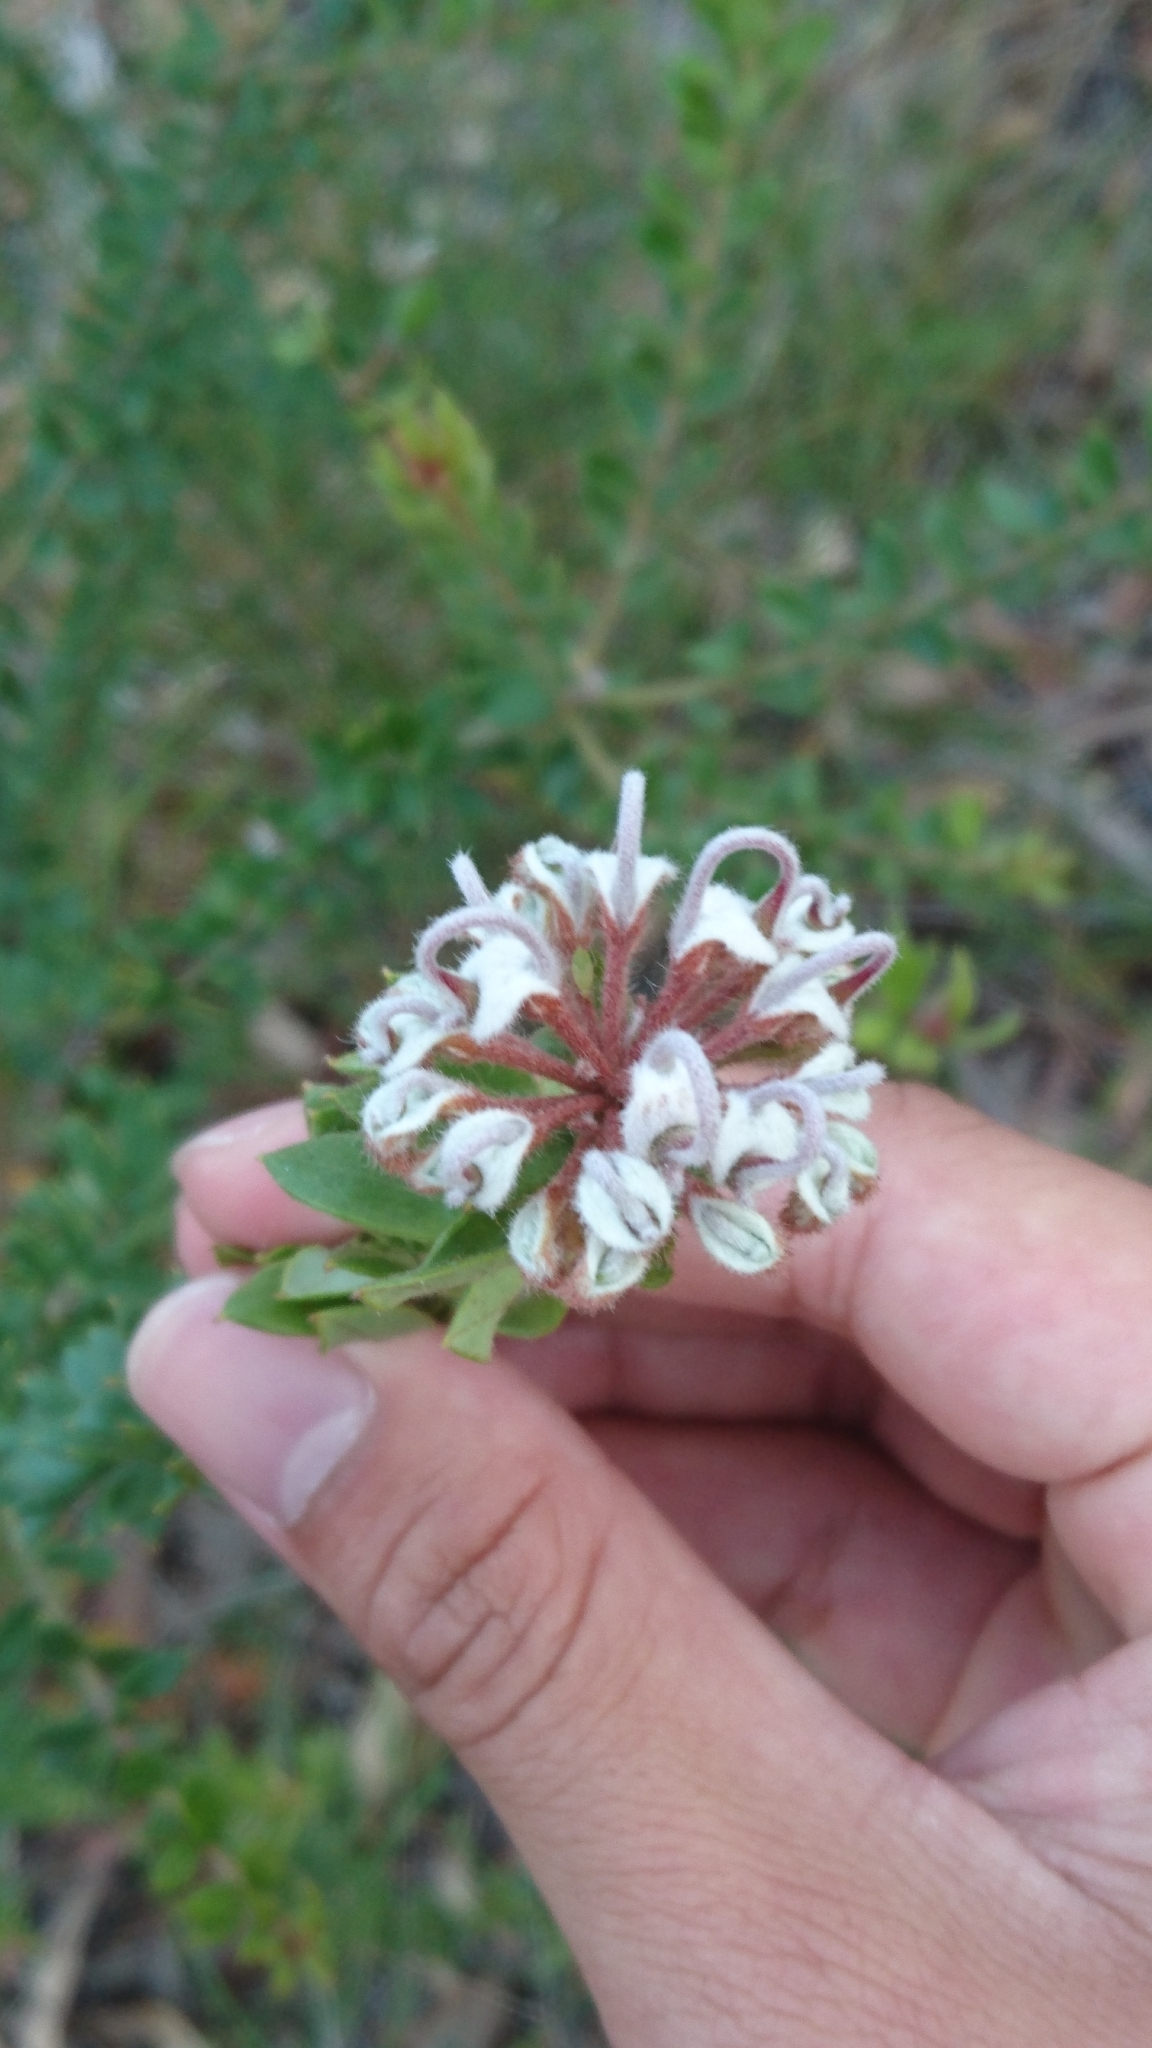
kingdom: Plantae
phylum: Tracheophyta
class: Magnoliopsida
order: Proteales
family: Proteaceae
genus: Grevillea
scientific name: Grevillea buxifolia
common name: Grey spiderflower
